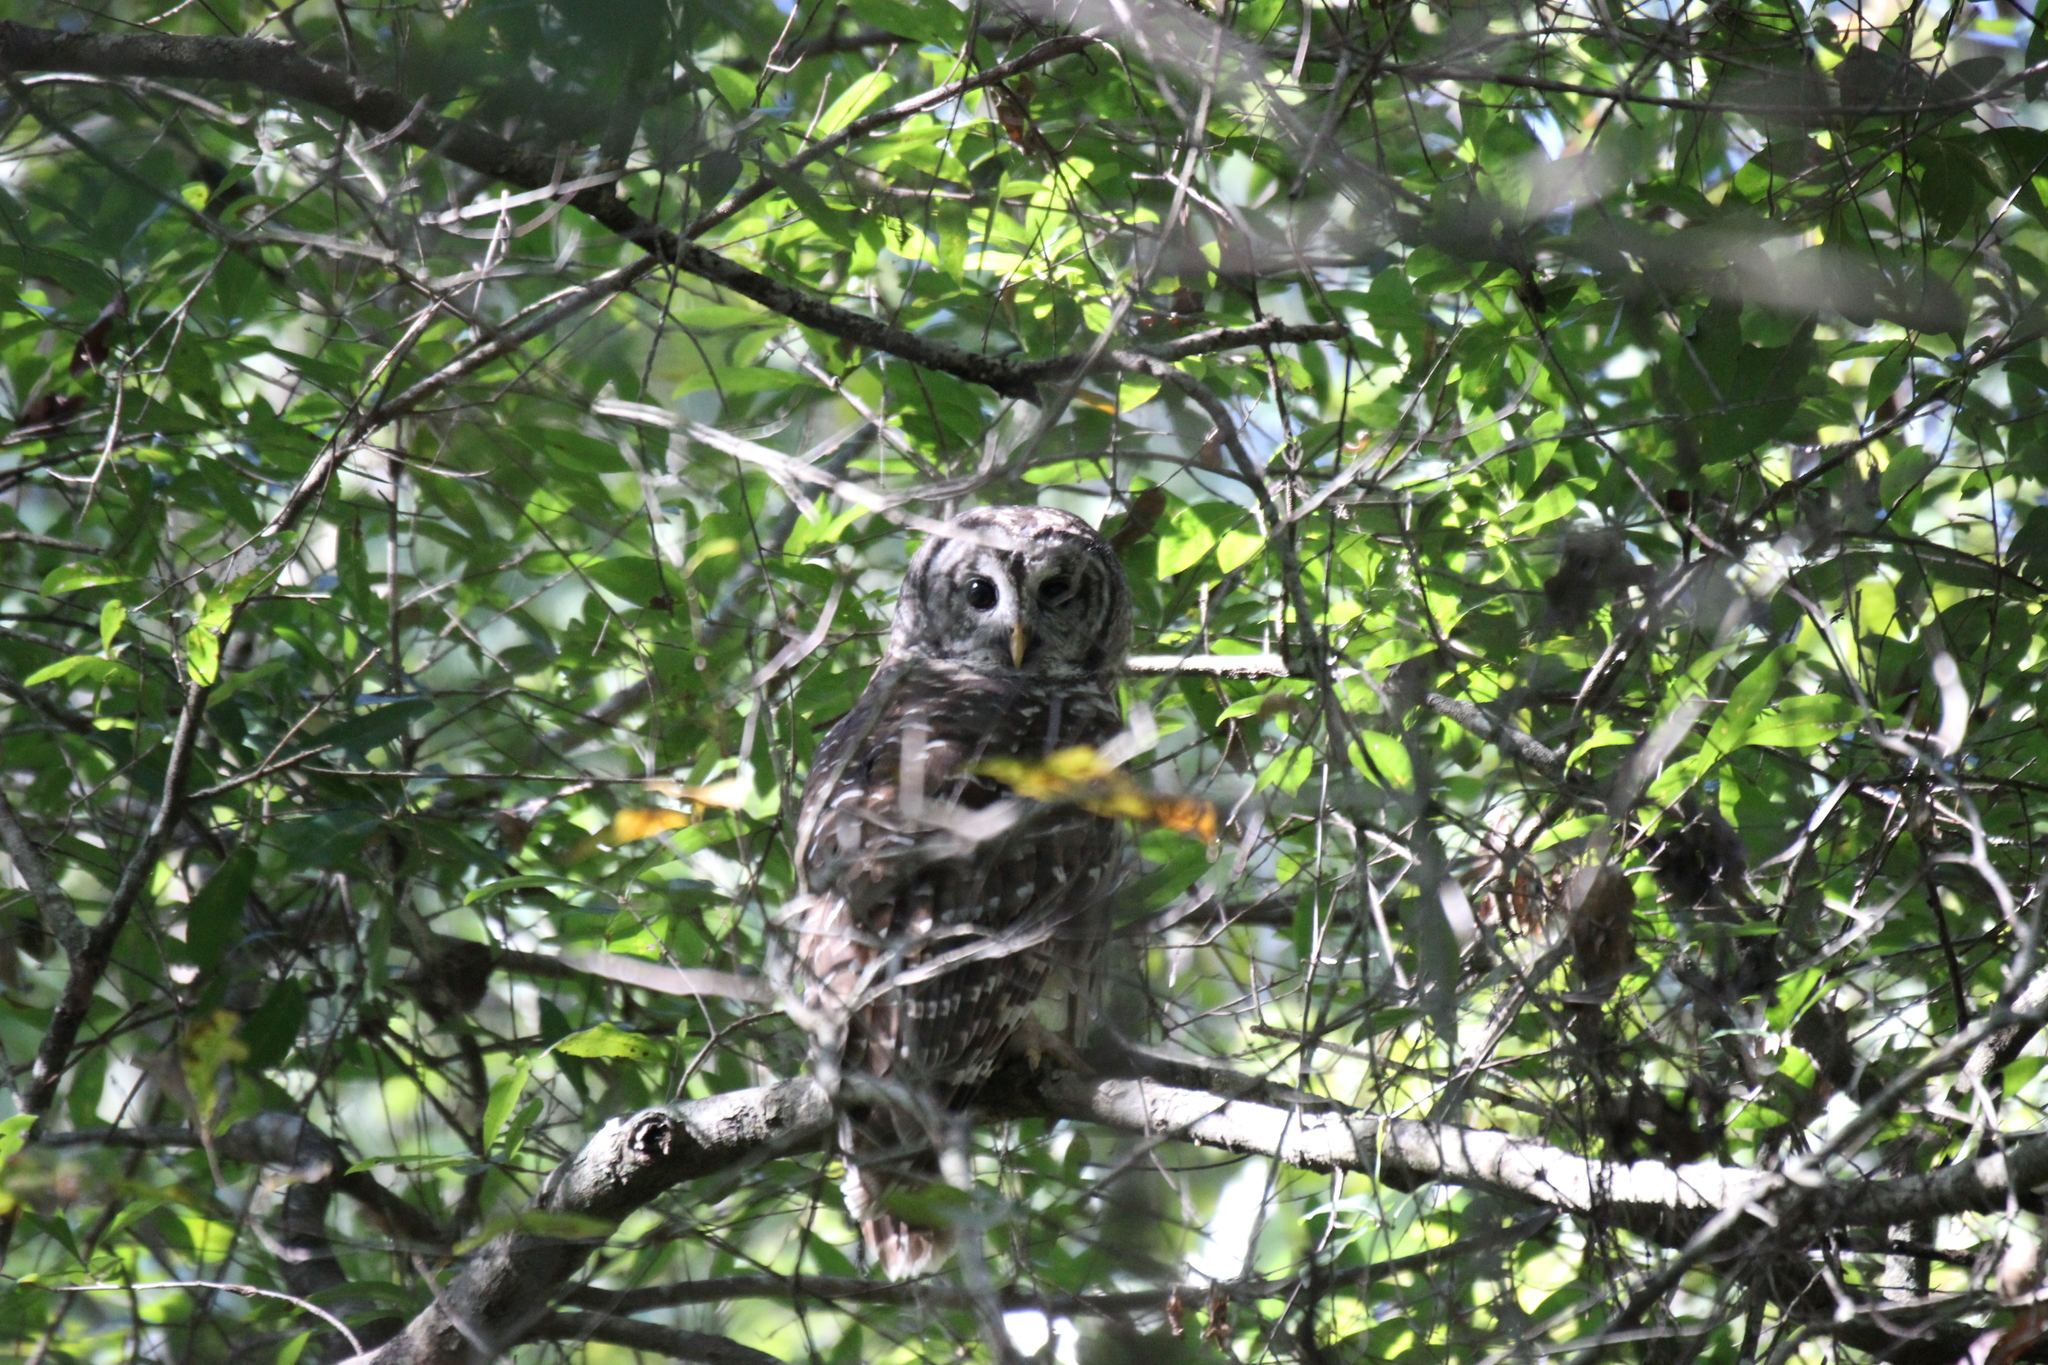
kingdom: Animalia
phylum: Chordata
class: Aves
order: Strigiformes
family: Strigidae
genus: Strix
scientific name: Strix varia
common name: Barred owl
